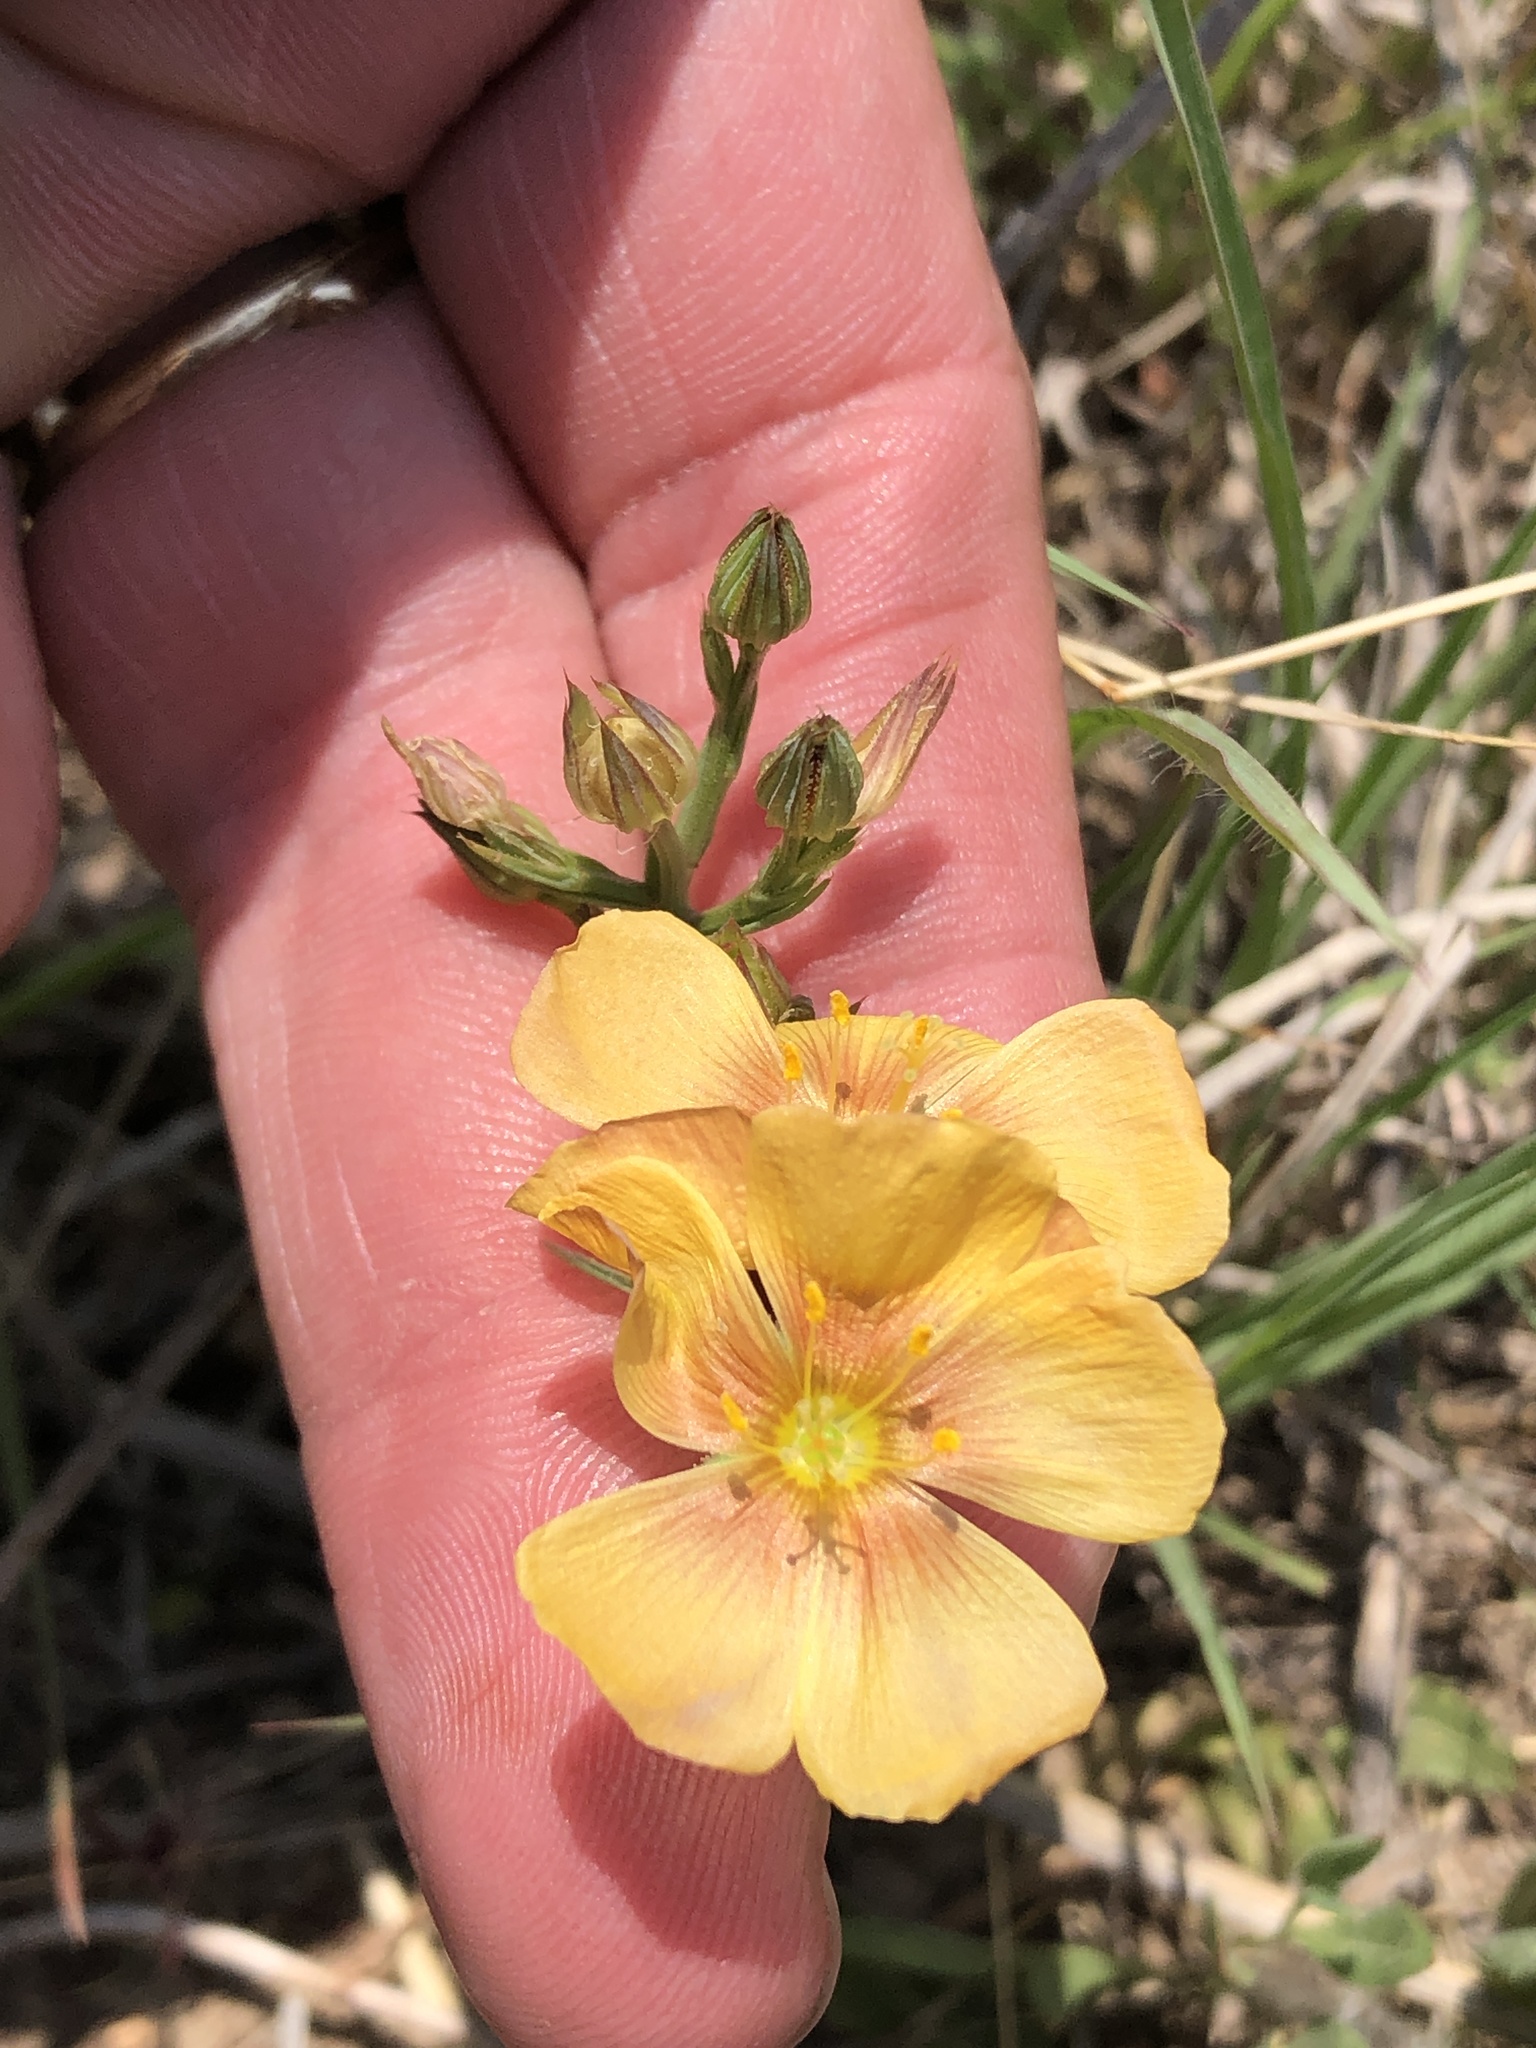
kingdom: Plantae
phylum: Tracheophyta
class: Magnoliopsida
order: Malpighiales
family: Linaceae
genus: Linum
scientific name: Linum rigidum
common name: Stiff-stem flax
